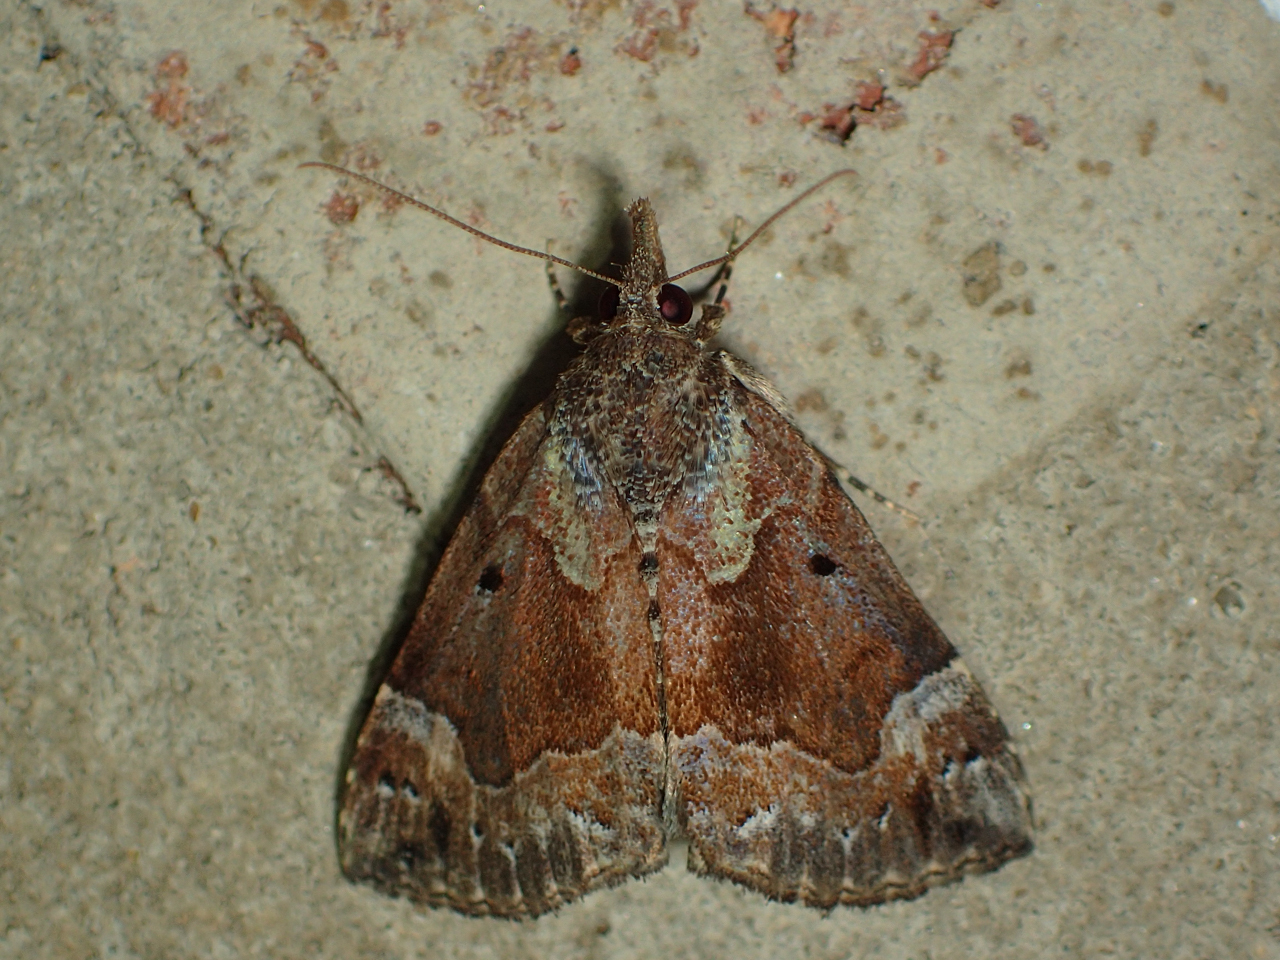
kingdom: Animalia
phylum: Arthropoda
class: Insecta
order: Lepidoptera
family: Erebidae
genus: Hypena
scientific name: Hypena palparia
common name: Mottled bomolocha moth
